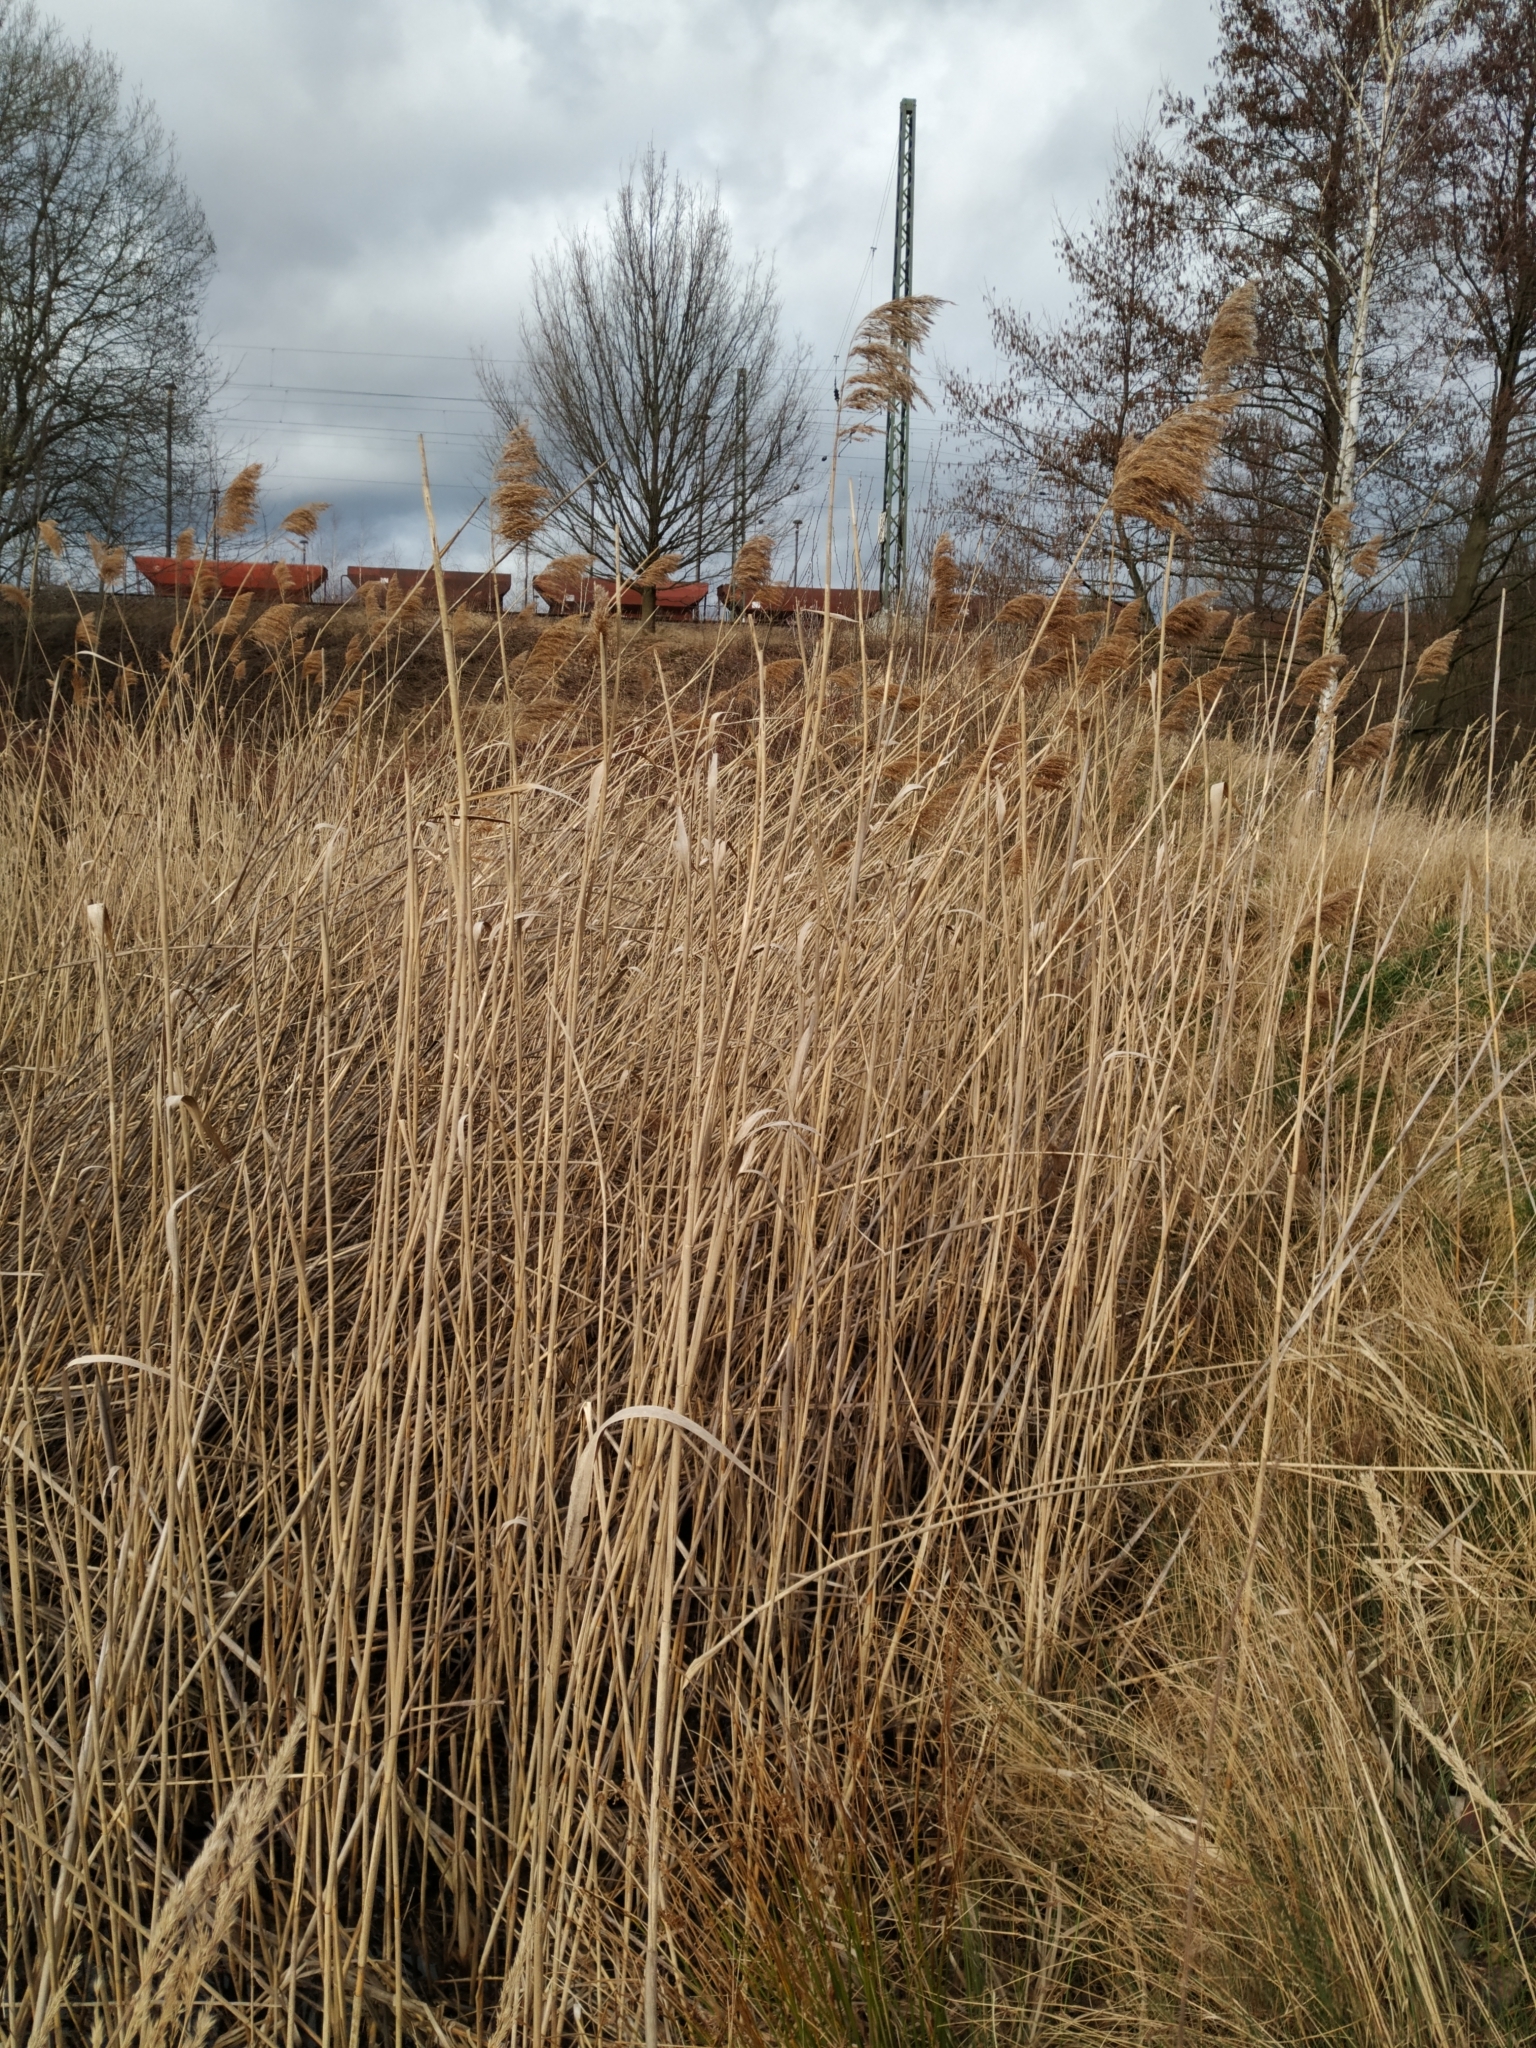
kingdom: Plantae
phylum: Tracheophyta
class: Liliopsida
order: Poales
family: Poaceae
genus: Phragmites
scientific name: Phragmites australis
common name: Common reed
